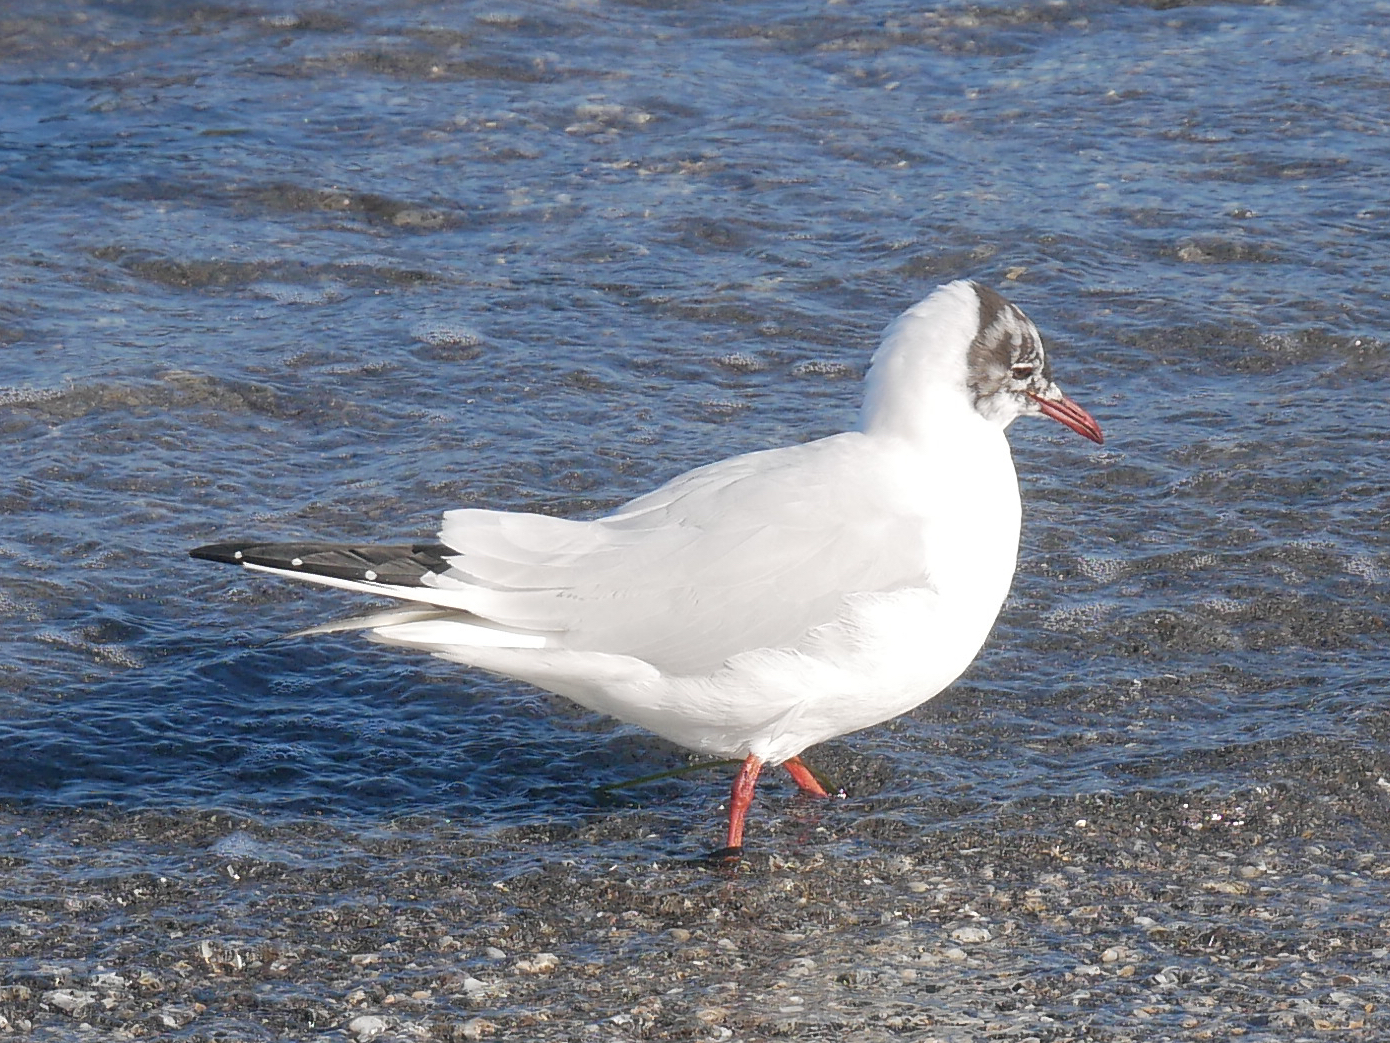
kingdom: Animalia
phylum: Chordata
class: Aves
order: Charadriiformes
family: Laridae
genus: Chroicocephalus
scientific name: Chroicocephalus ridibundus
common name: Black-headed gull
